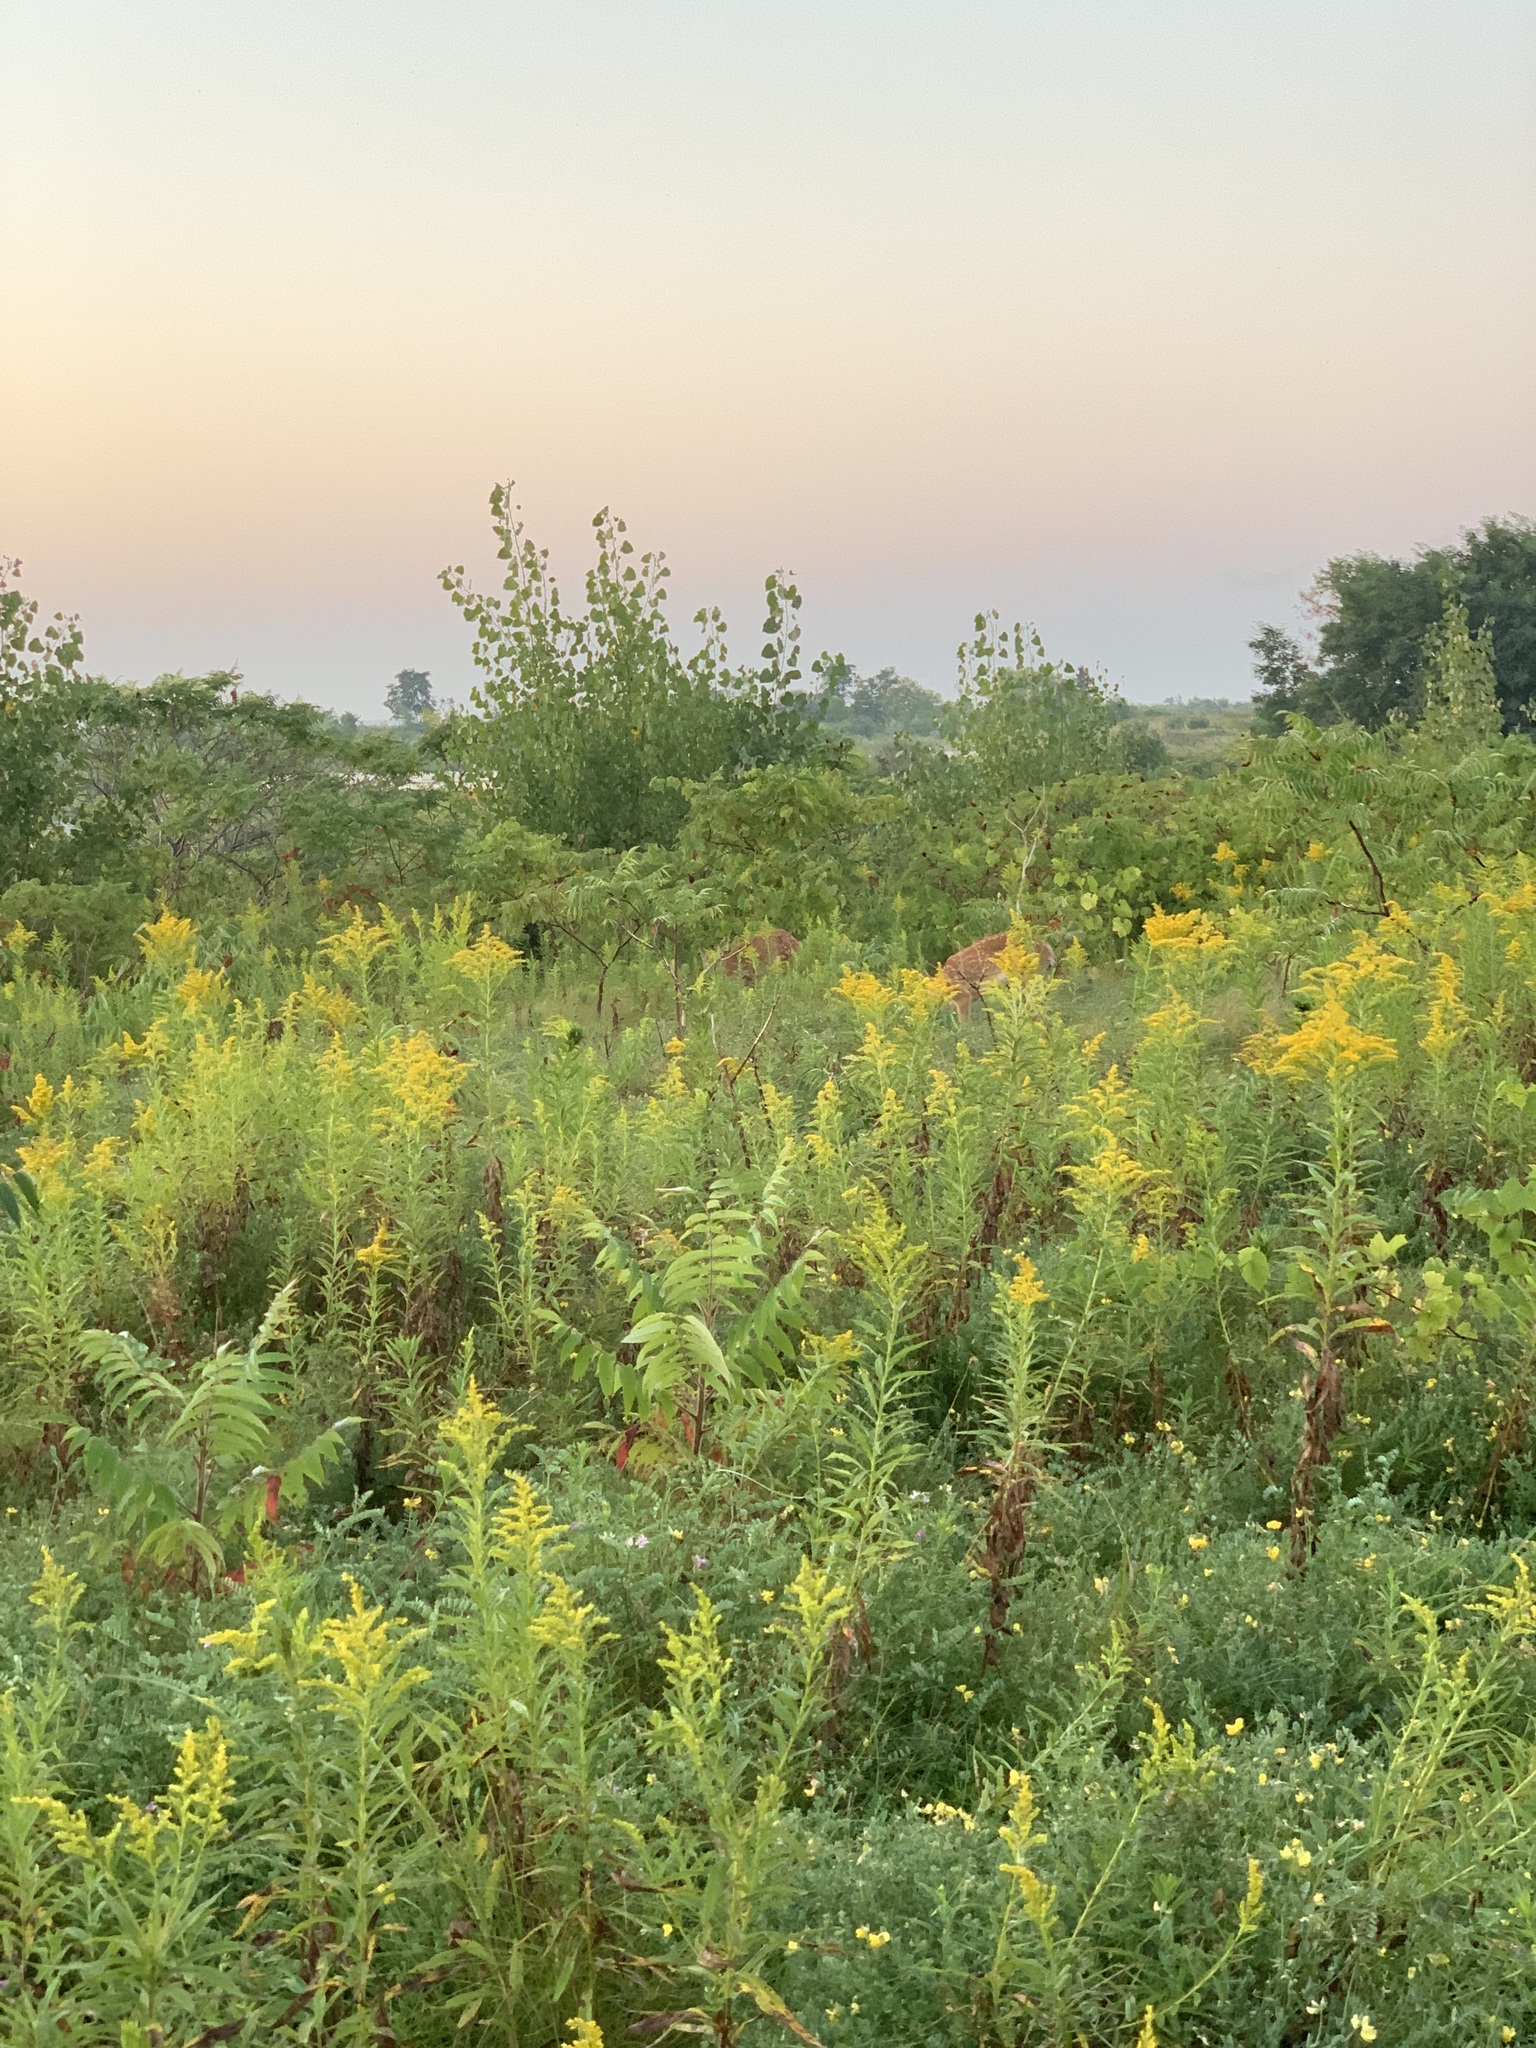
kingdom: Animalia
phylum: Chordata
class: Mammalia
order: Artiodactyla
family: Cervidae
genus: Odocoileus
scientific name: Odocoileus virginianus
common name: White-tailed deer
